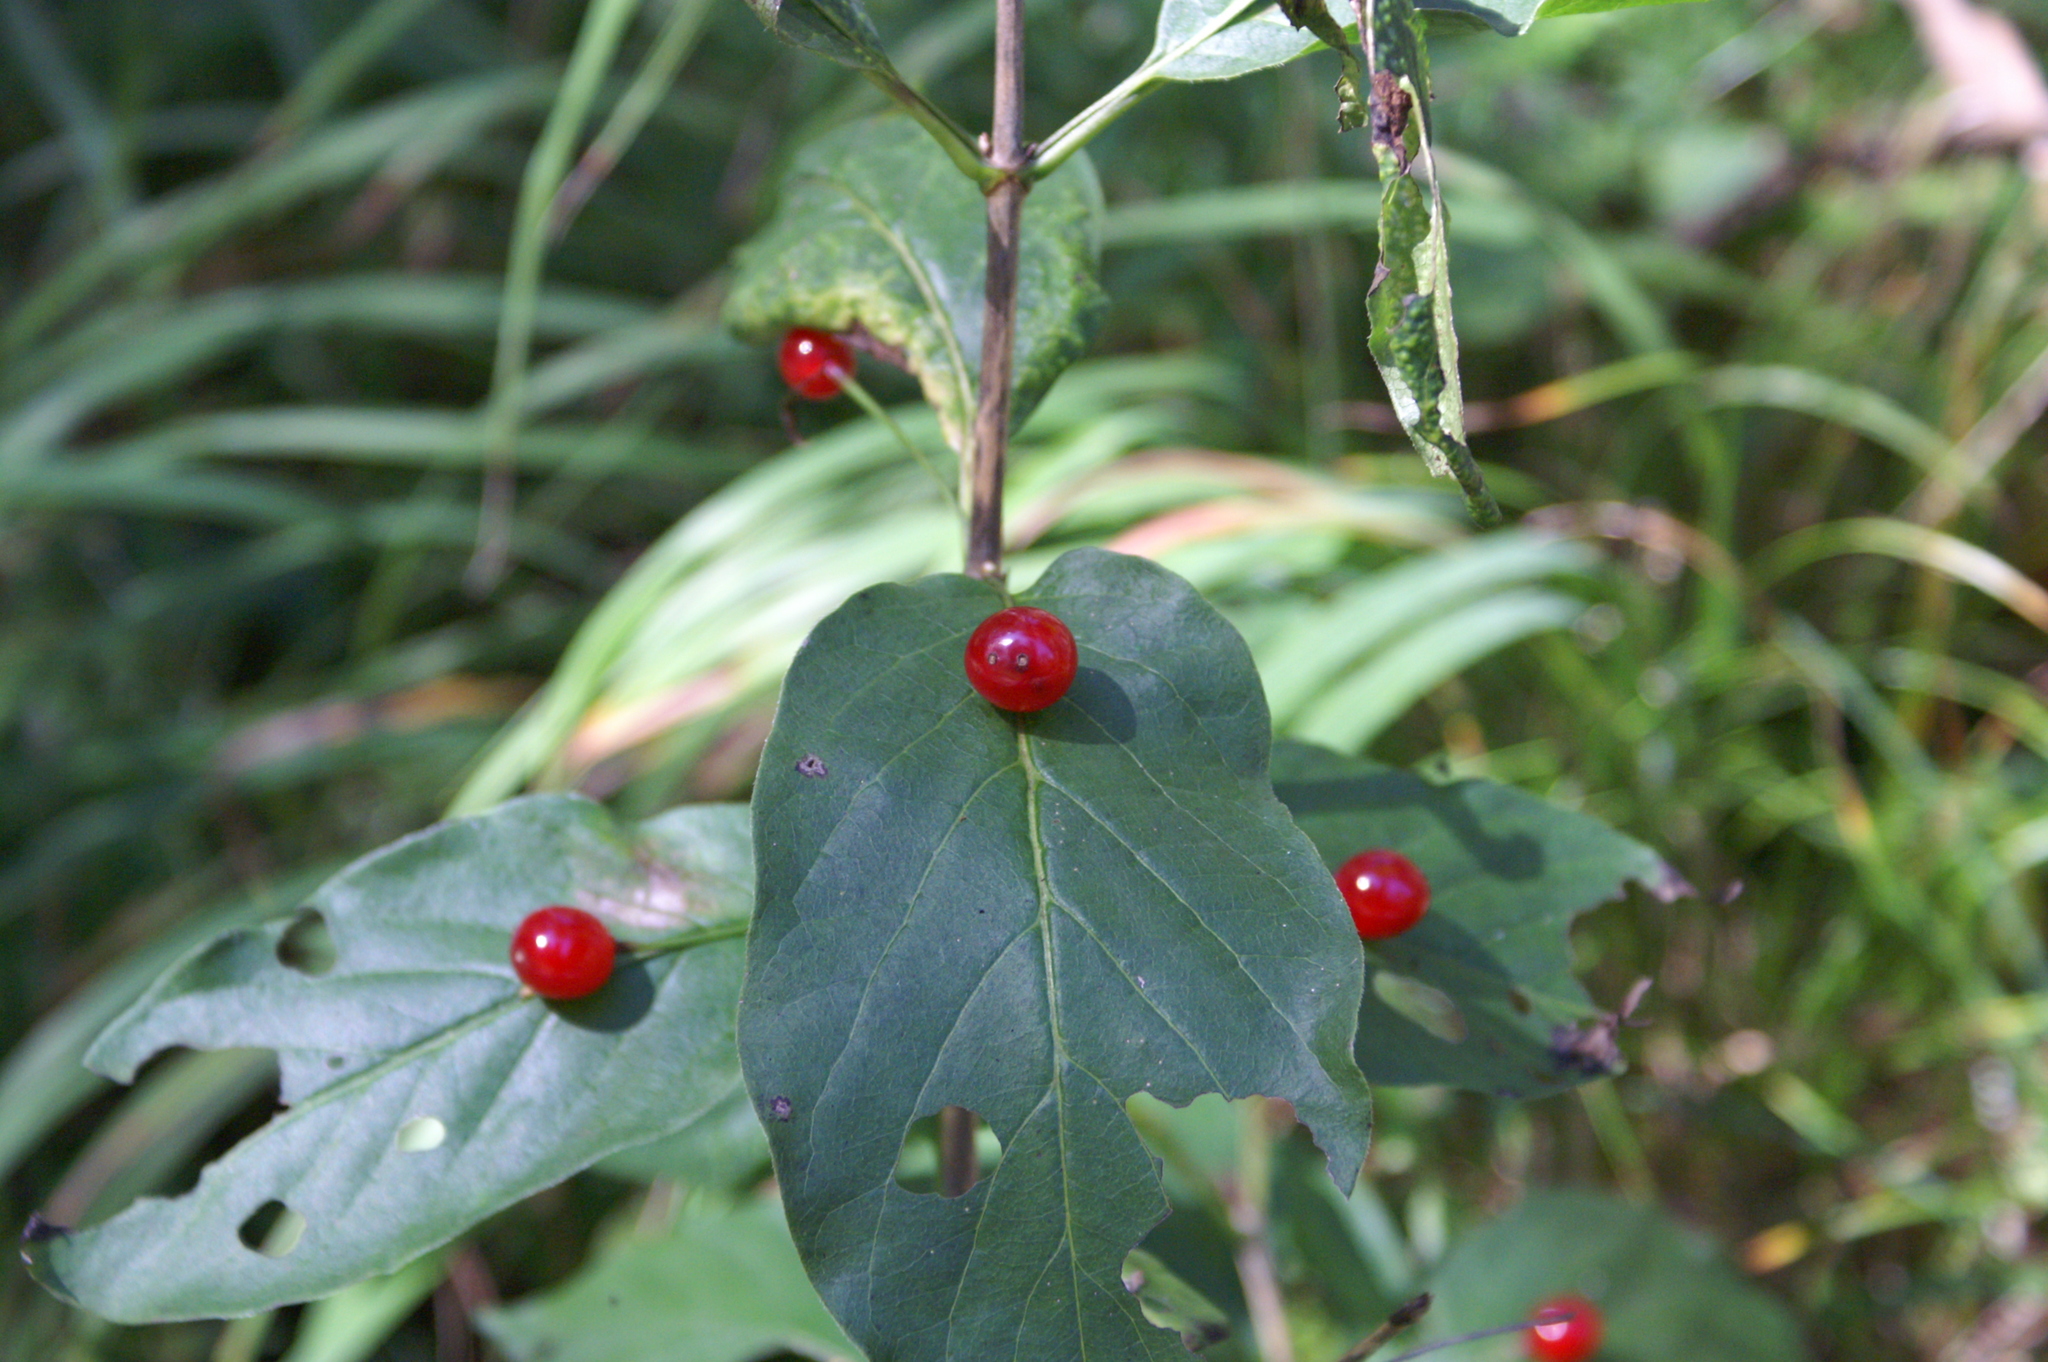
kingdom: Plantae
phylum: Tracheophyta
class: Magnoliopsida
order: Dipsacales
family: Caprifoliaceae
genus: Lonicera
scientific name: Lonicera alpigena
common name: Alpine honeysuckle
